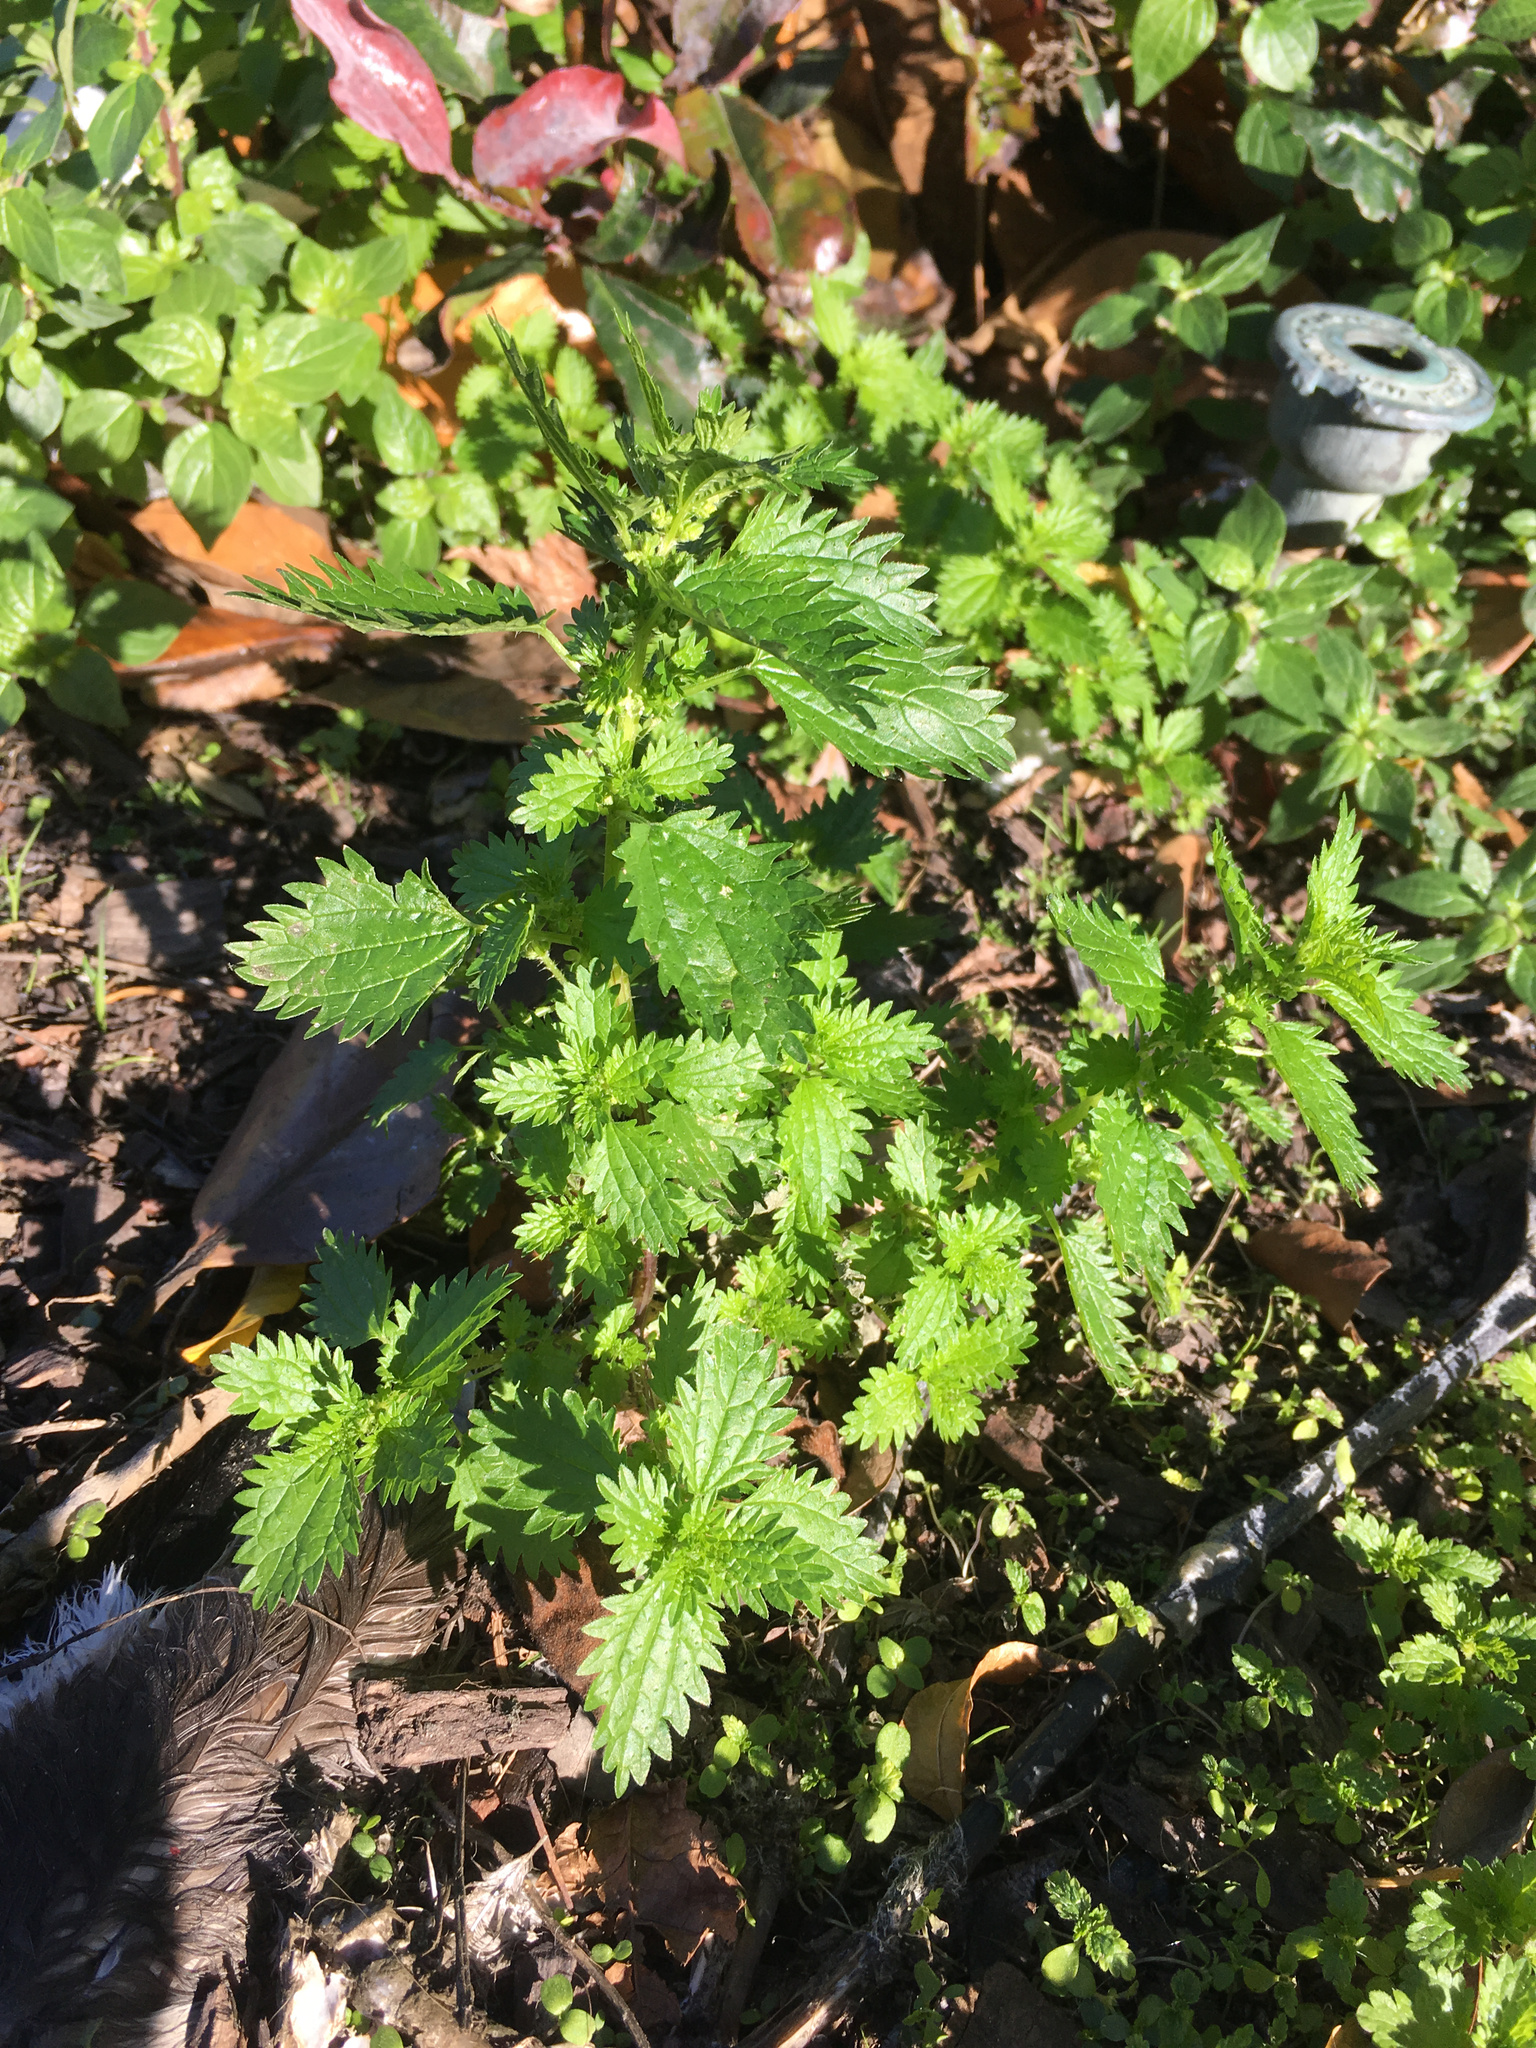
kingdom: Plantae
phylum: Tracheophyta
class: Magnoliopsida
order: Rosales
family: Urticaceae
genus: Urtica
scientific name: Urtica urens
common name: Dwarf nettle
